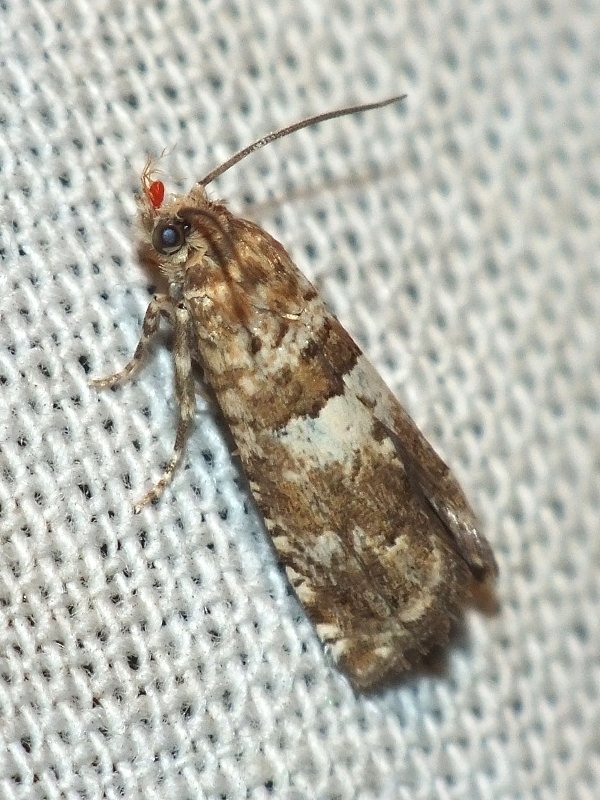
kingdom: Animalia
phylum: Arthropoda
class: Insecta
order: Lepidoptera
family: Tortricidae
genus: Epiblema
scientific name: Epiblema graphana
